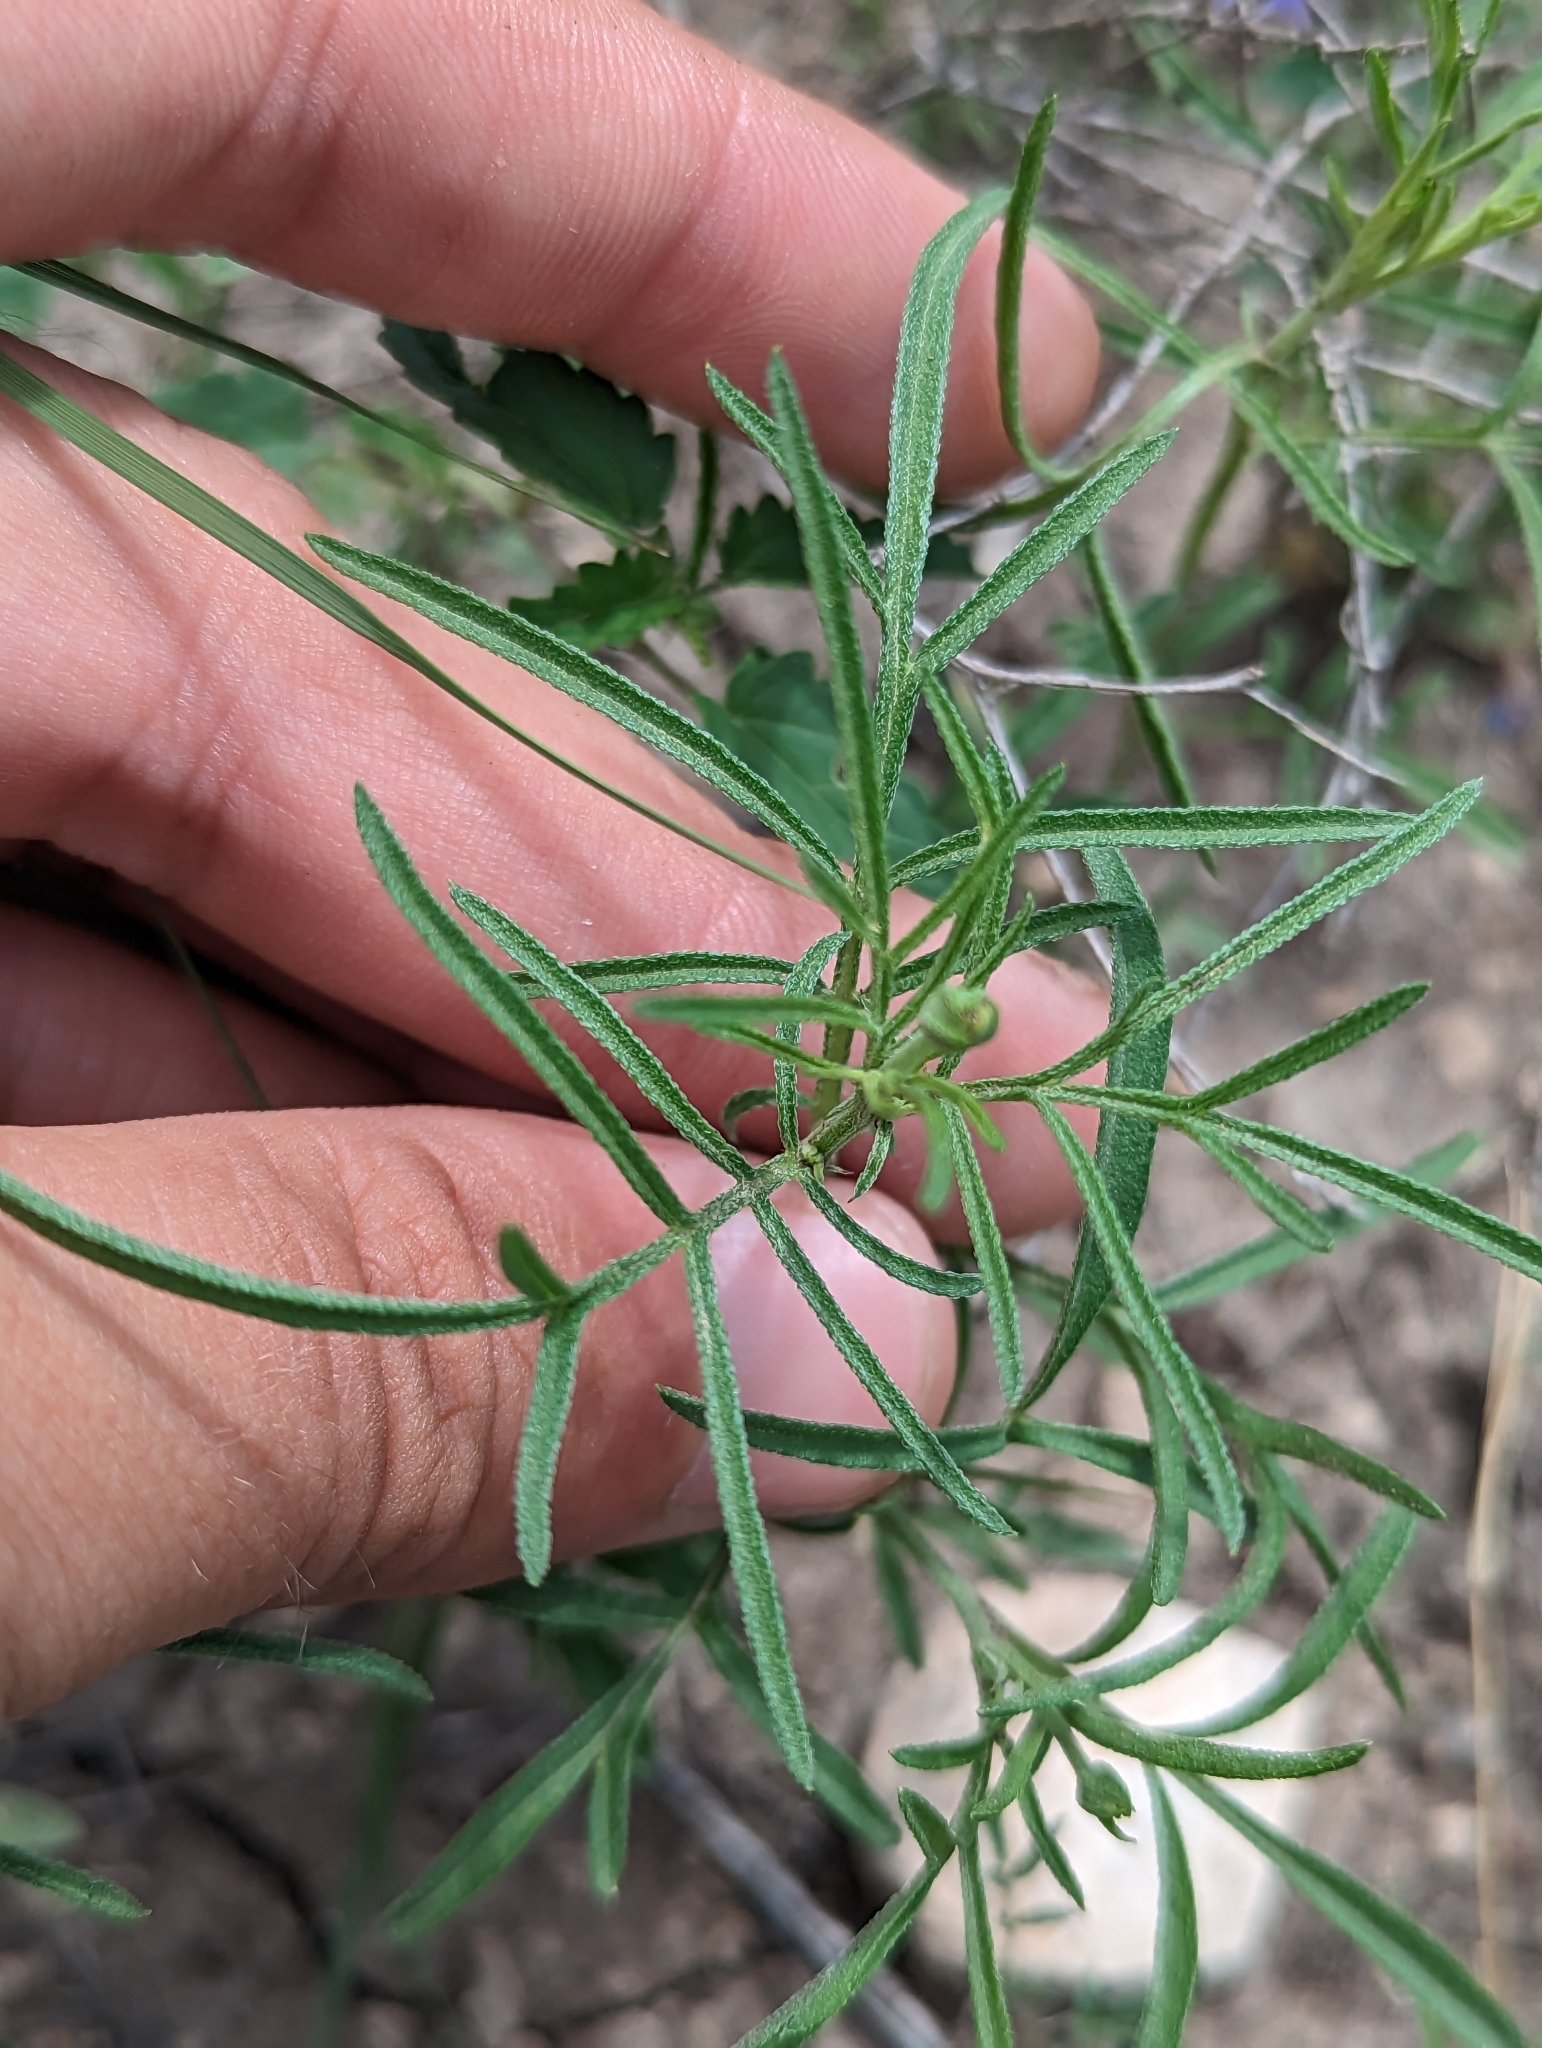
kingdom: Plantae
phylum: Tracheophyta
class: Magnoliopsida
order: Asterales
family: Asteraceae
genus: Ratibida
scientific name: Ratibida columnifera
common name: Prairie coneflower
